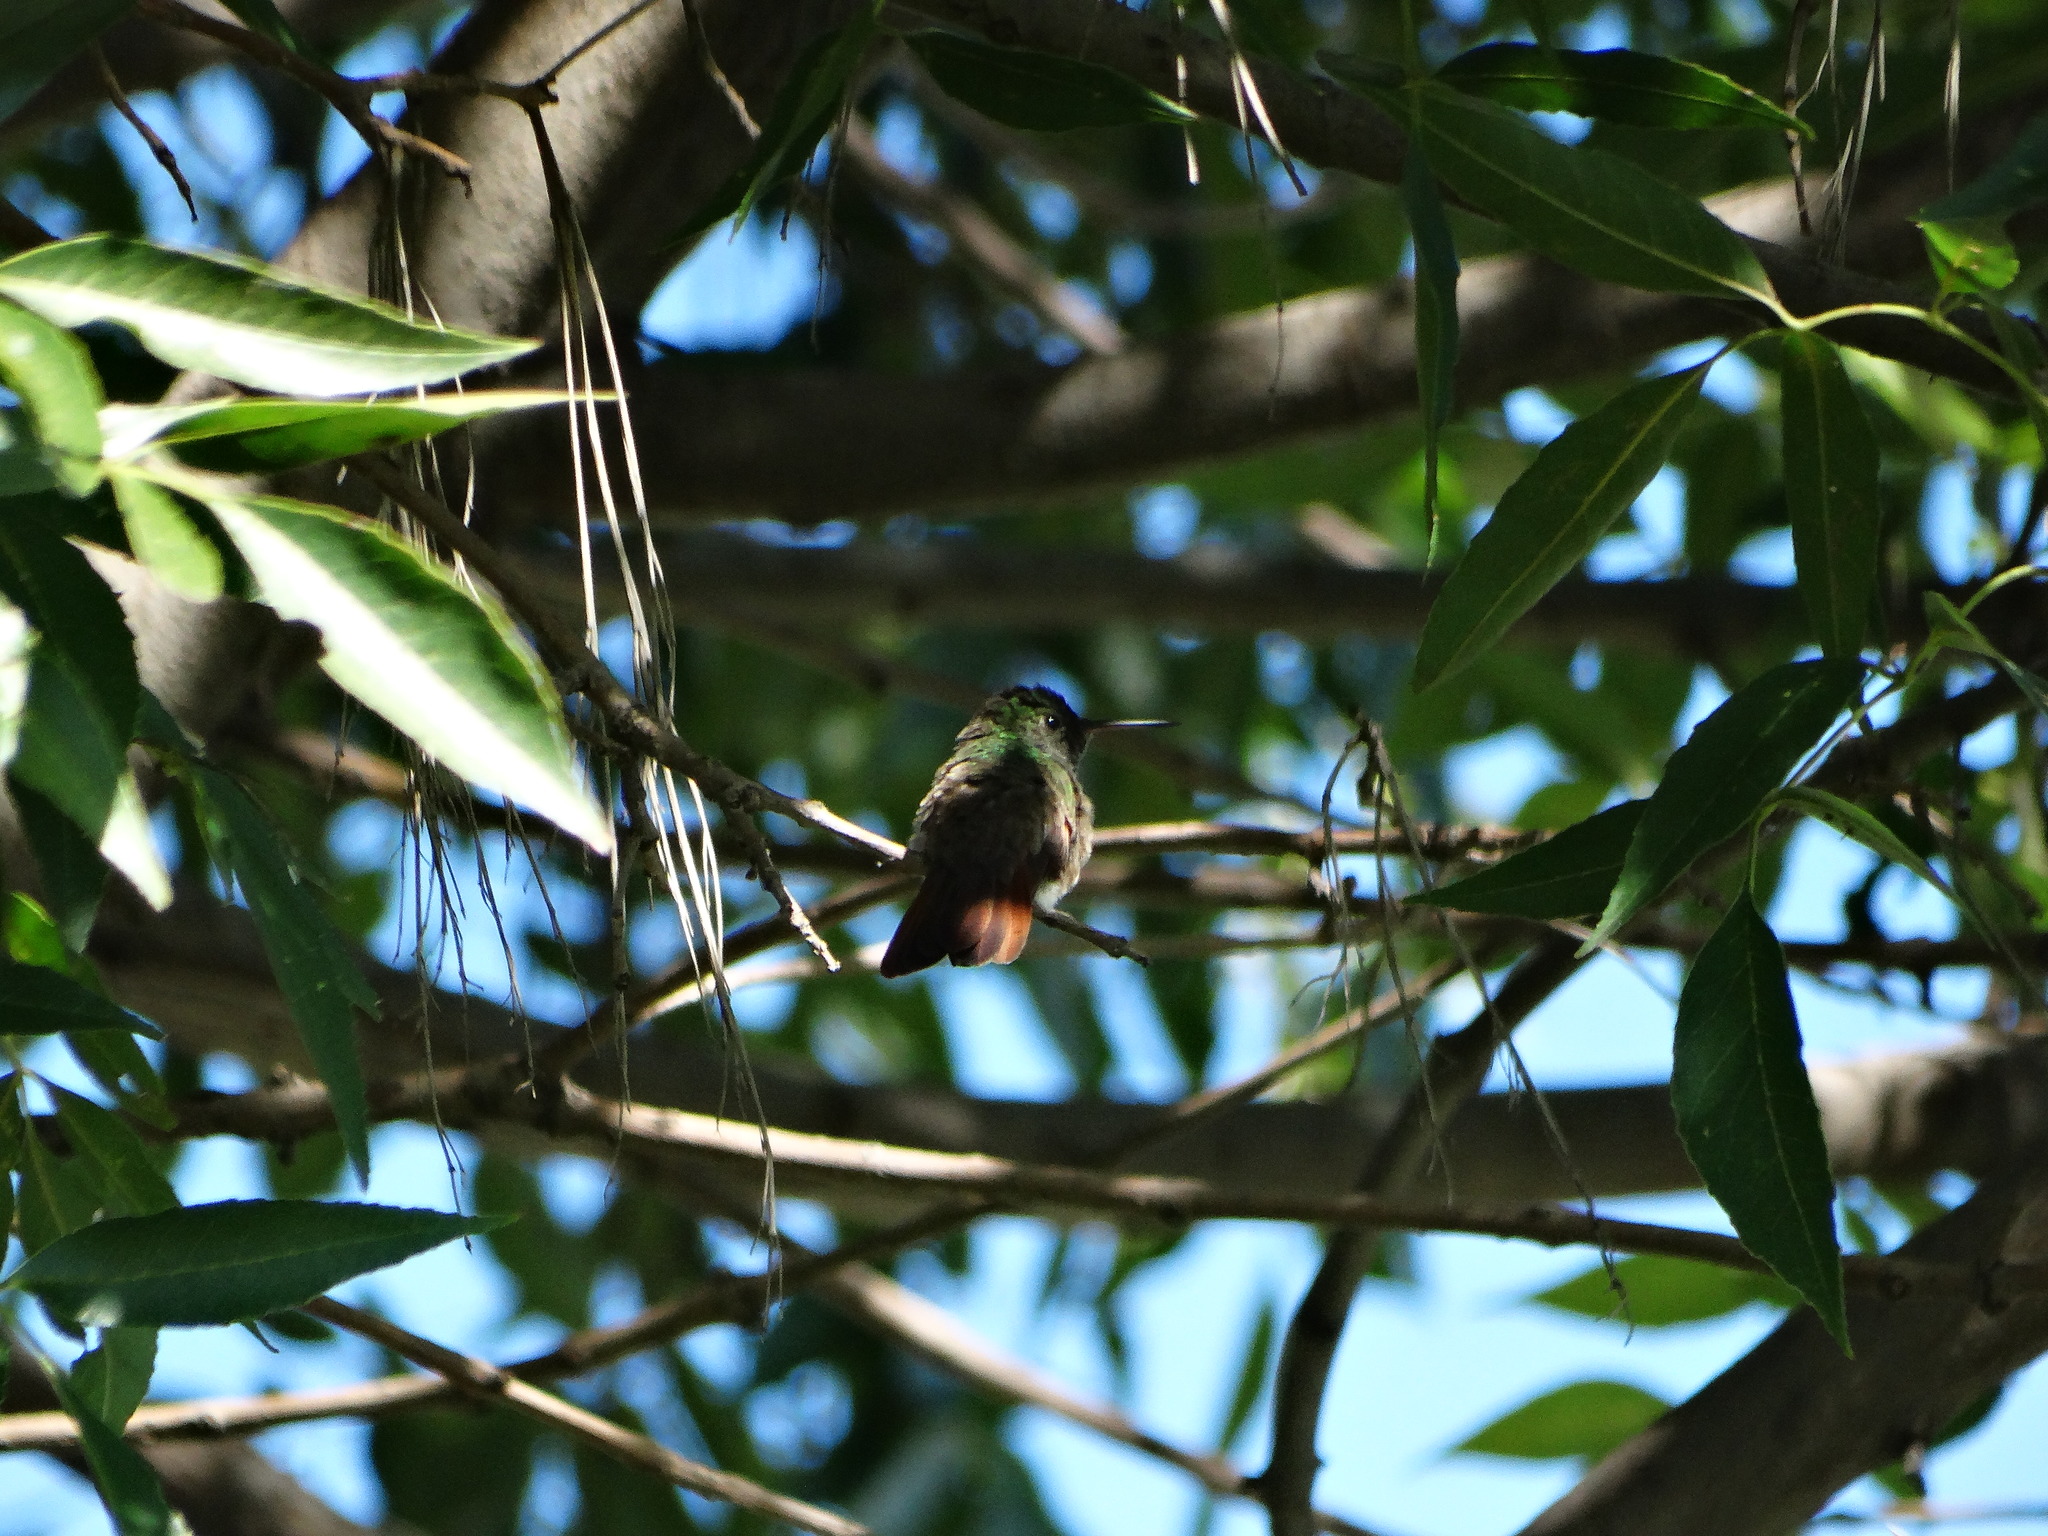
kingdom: Animalia
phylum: Chordata
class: Aves
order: Apodiformes
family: Trochilidae
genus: Saucerottia
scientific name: Saucerottia beryllina
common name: Berylline hummingbird
